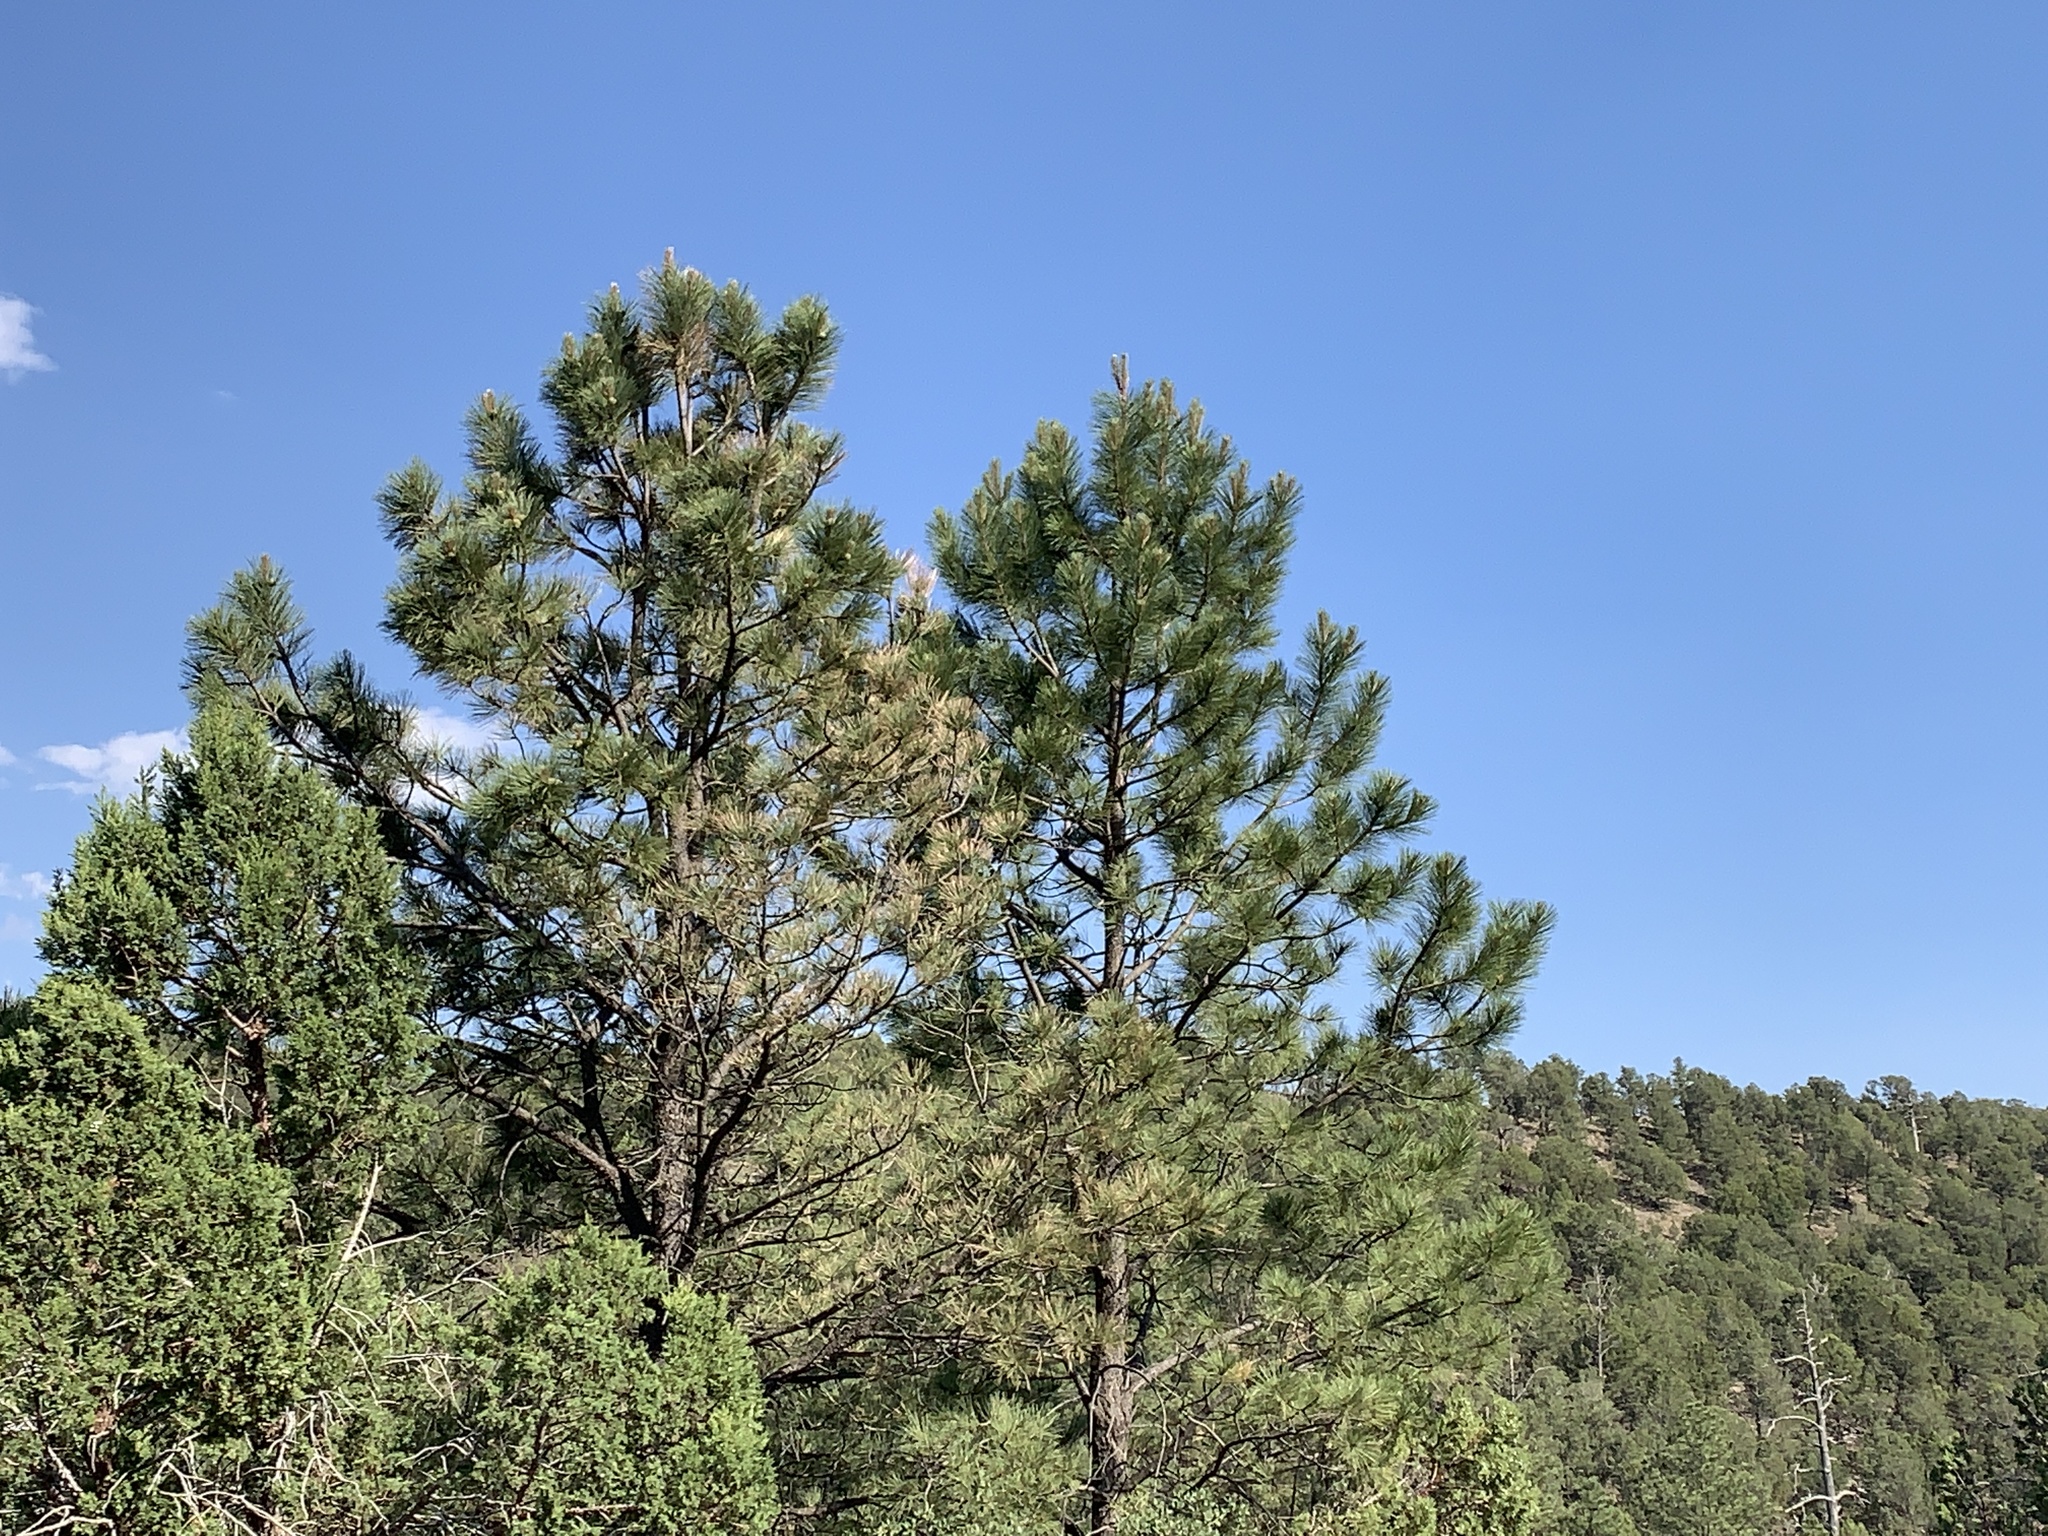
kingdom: Plantae
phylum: Tracheophyta
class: Pinopsida
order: Pinales
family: Pinaceae
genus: Pinus
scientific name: Pinus ponderosa
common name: Western yellow-pine
